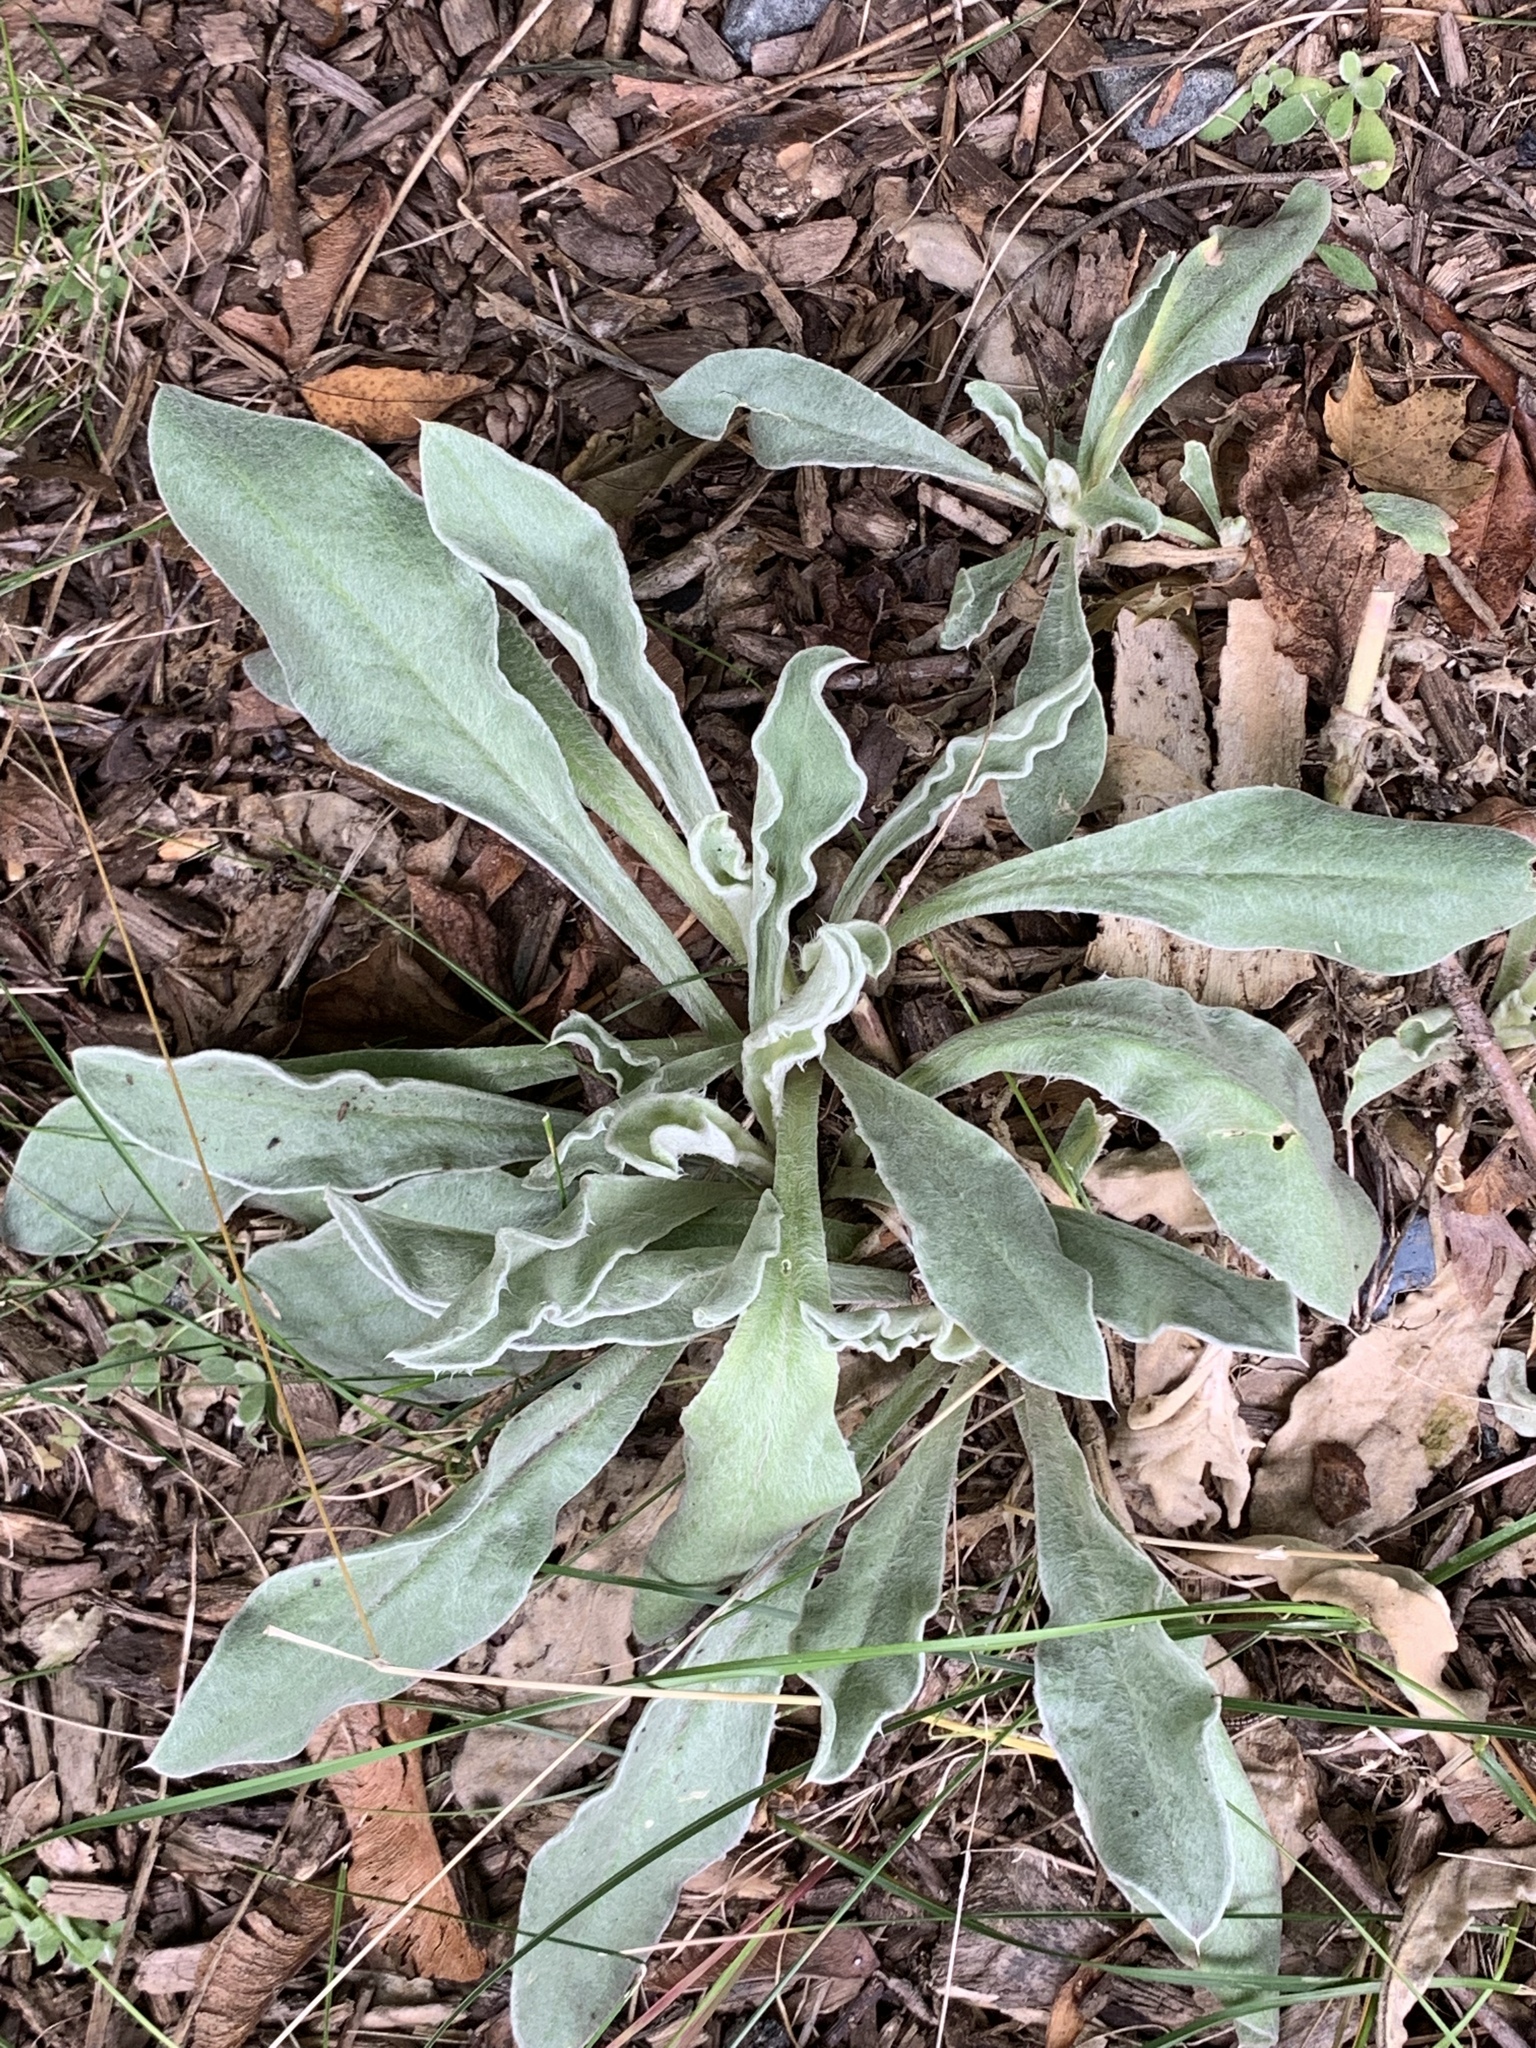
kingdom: Plantae
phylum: Tracheophyta
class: Magnoliopsida
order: Caryophyllales
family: Caryophyllaceae
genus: Silene
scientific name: Silene coronaria
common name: Rose campion
